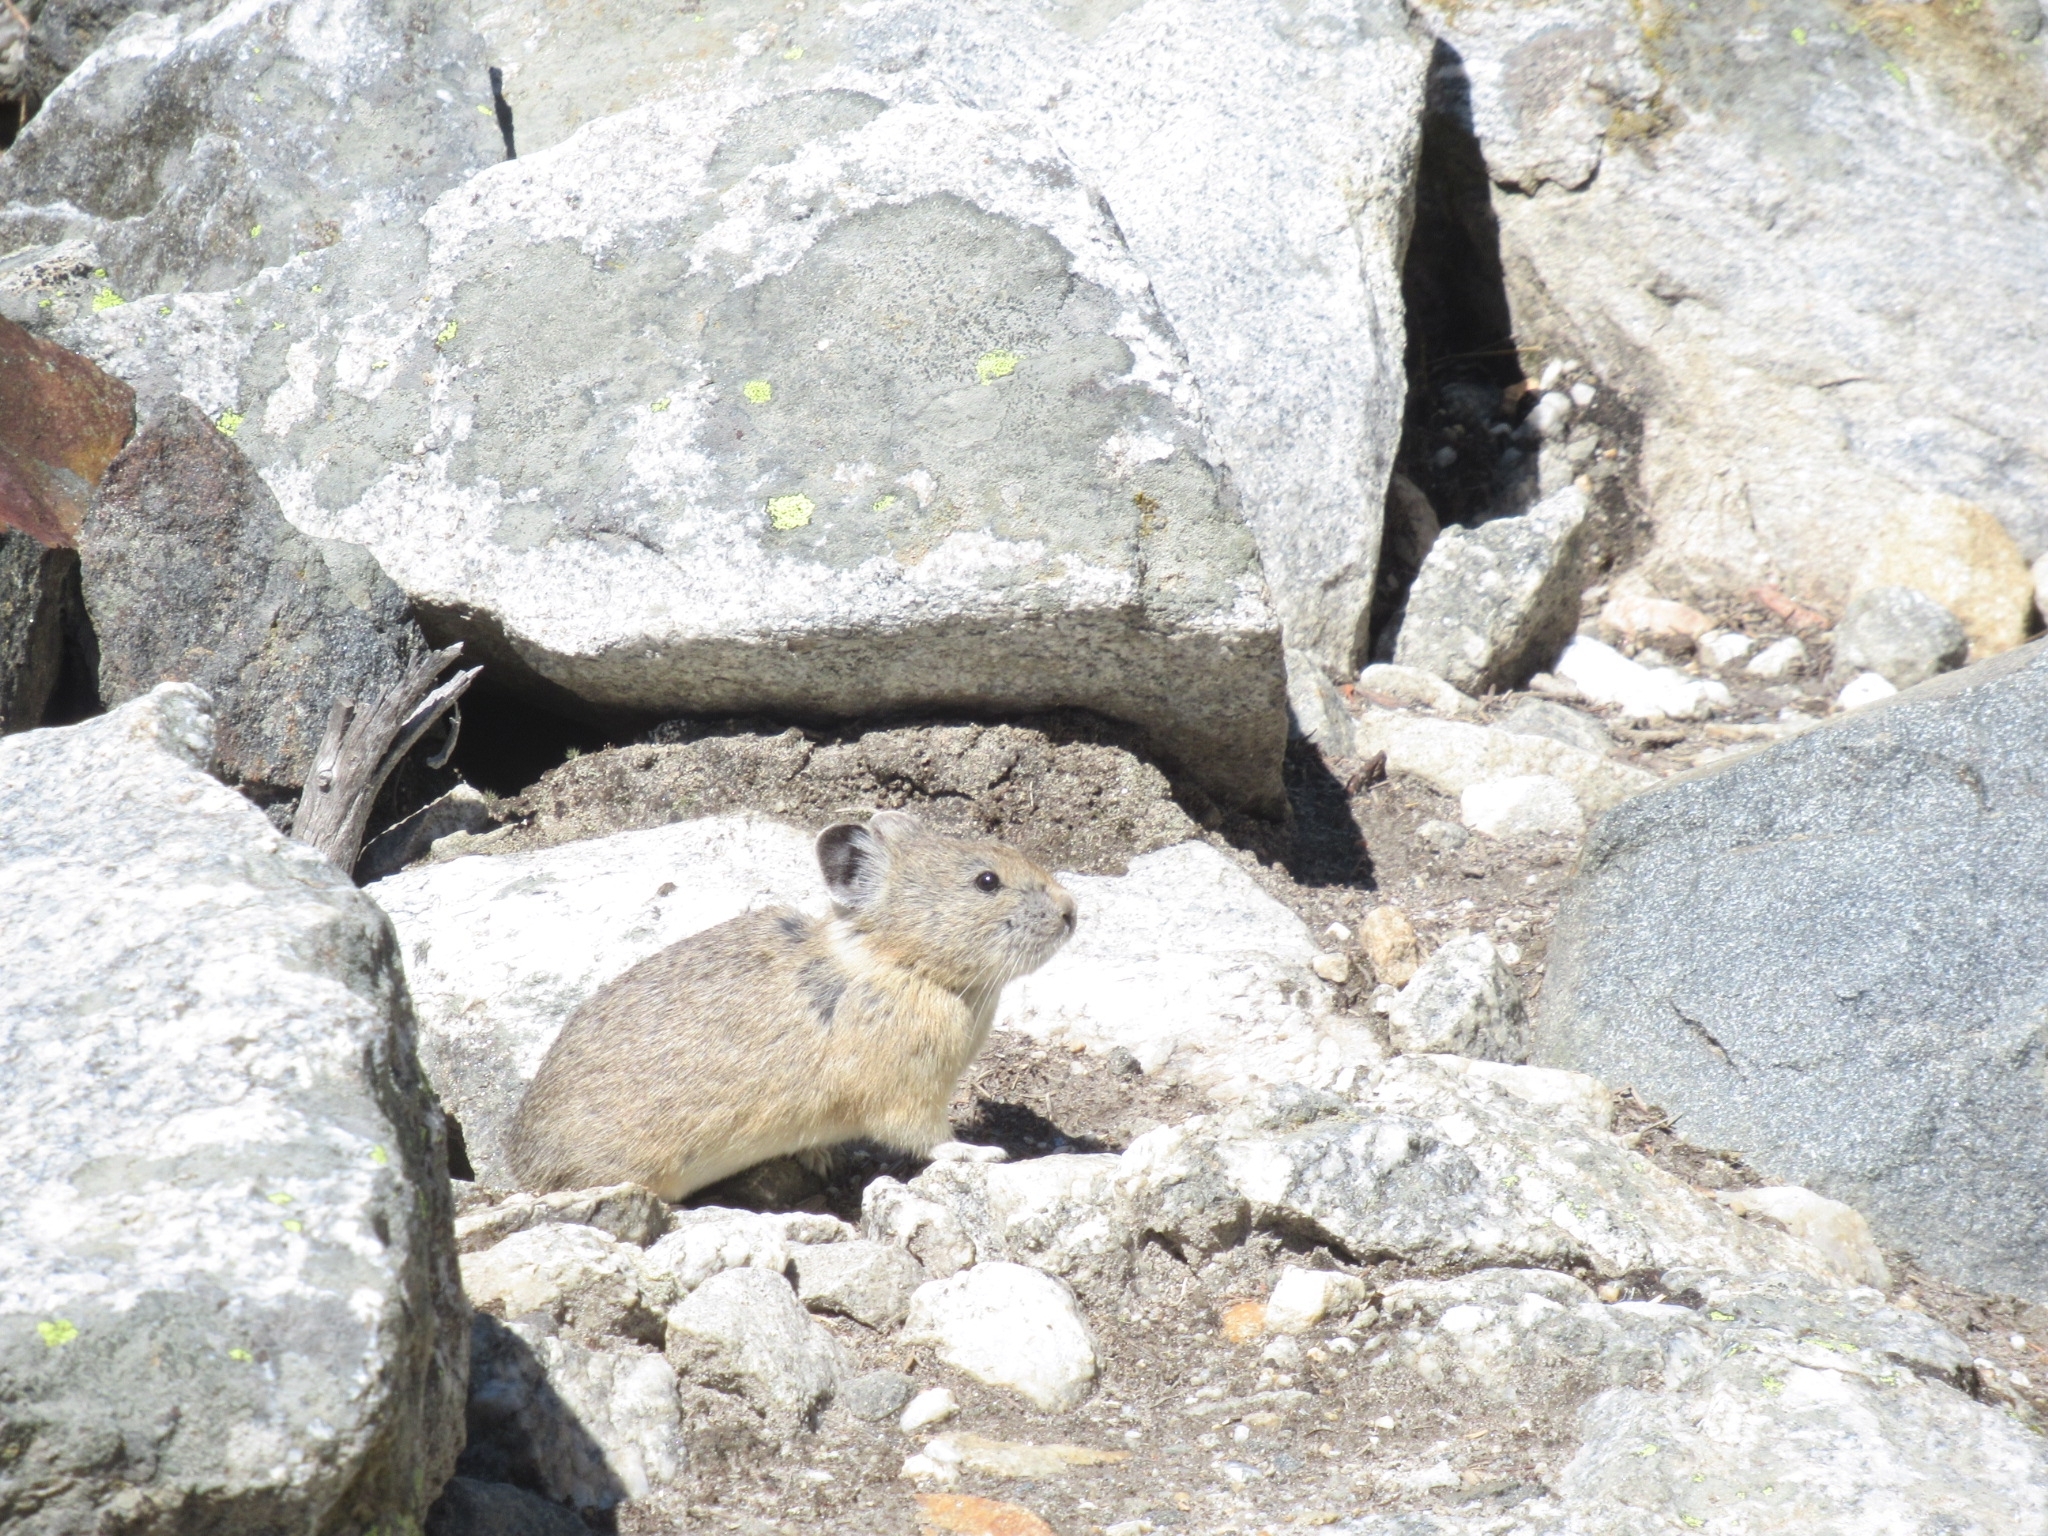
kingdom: Animalia
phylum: Chordata
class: Mammalia
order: Lagomorpha
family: Ochotonidae
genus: Ochotona
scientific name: Ochotona princeps
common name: American pika
